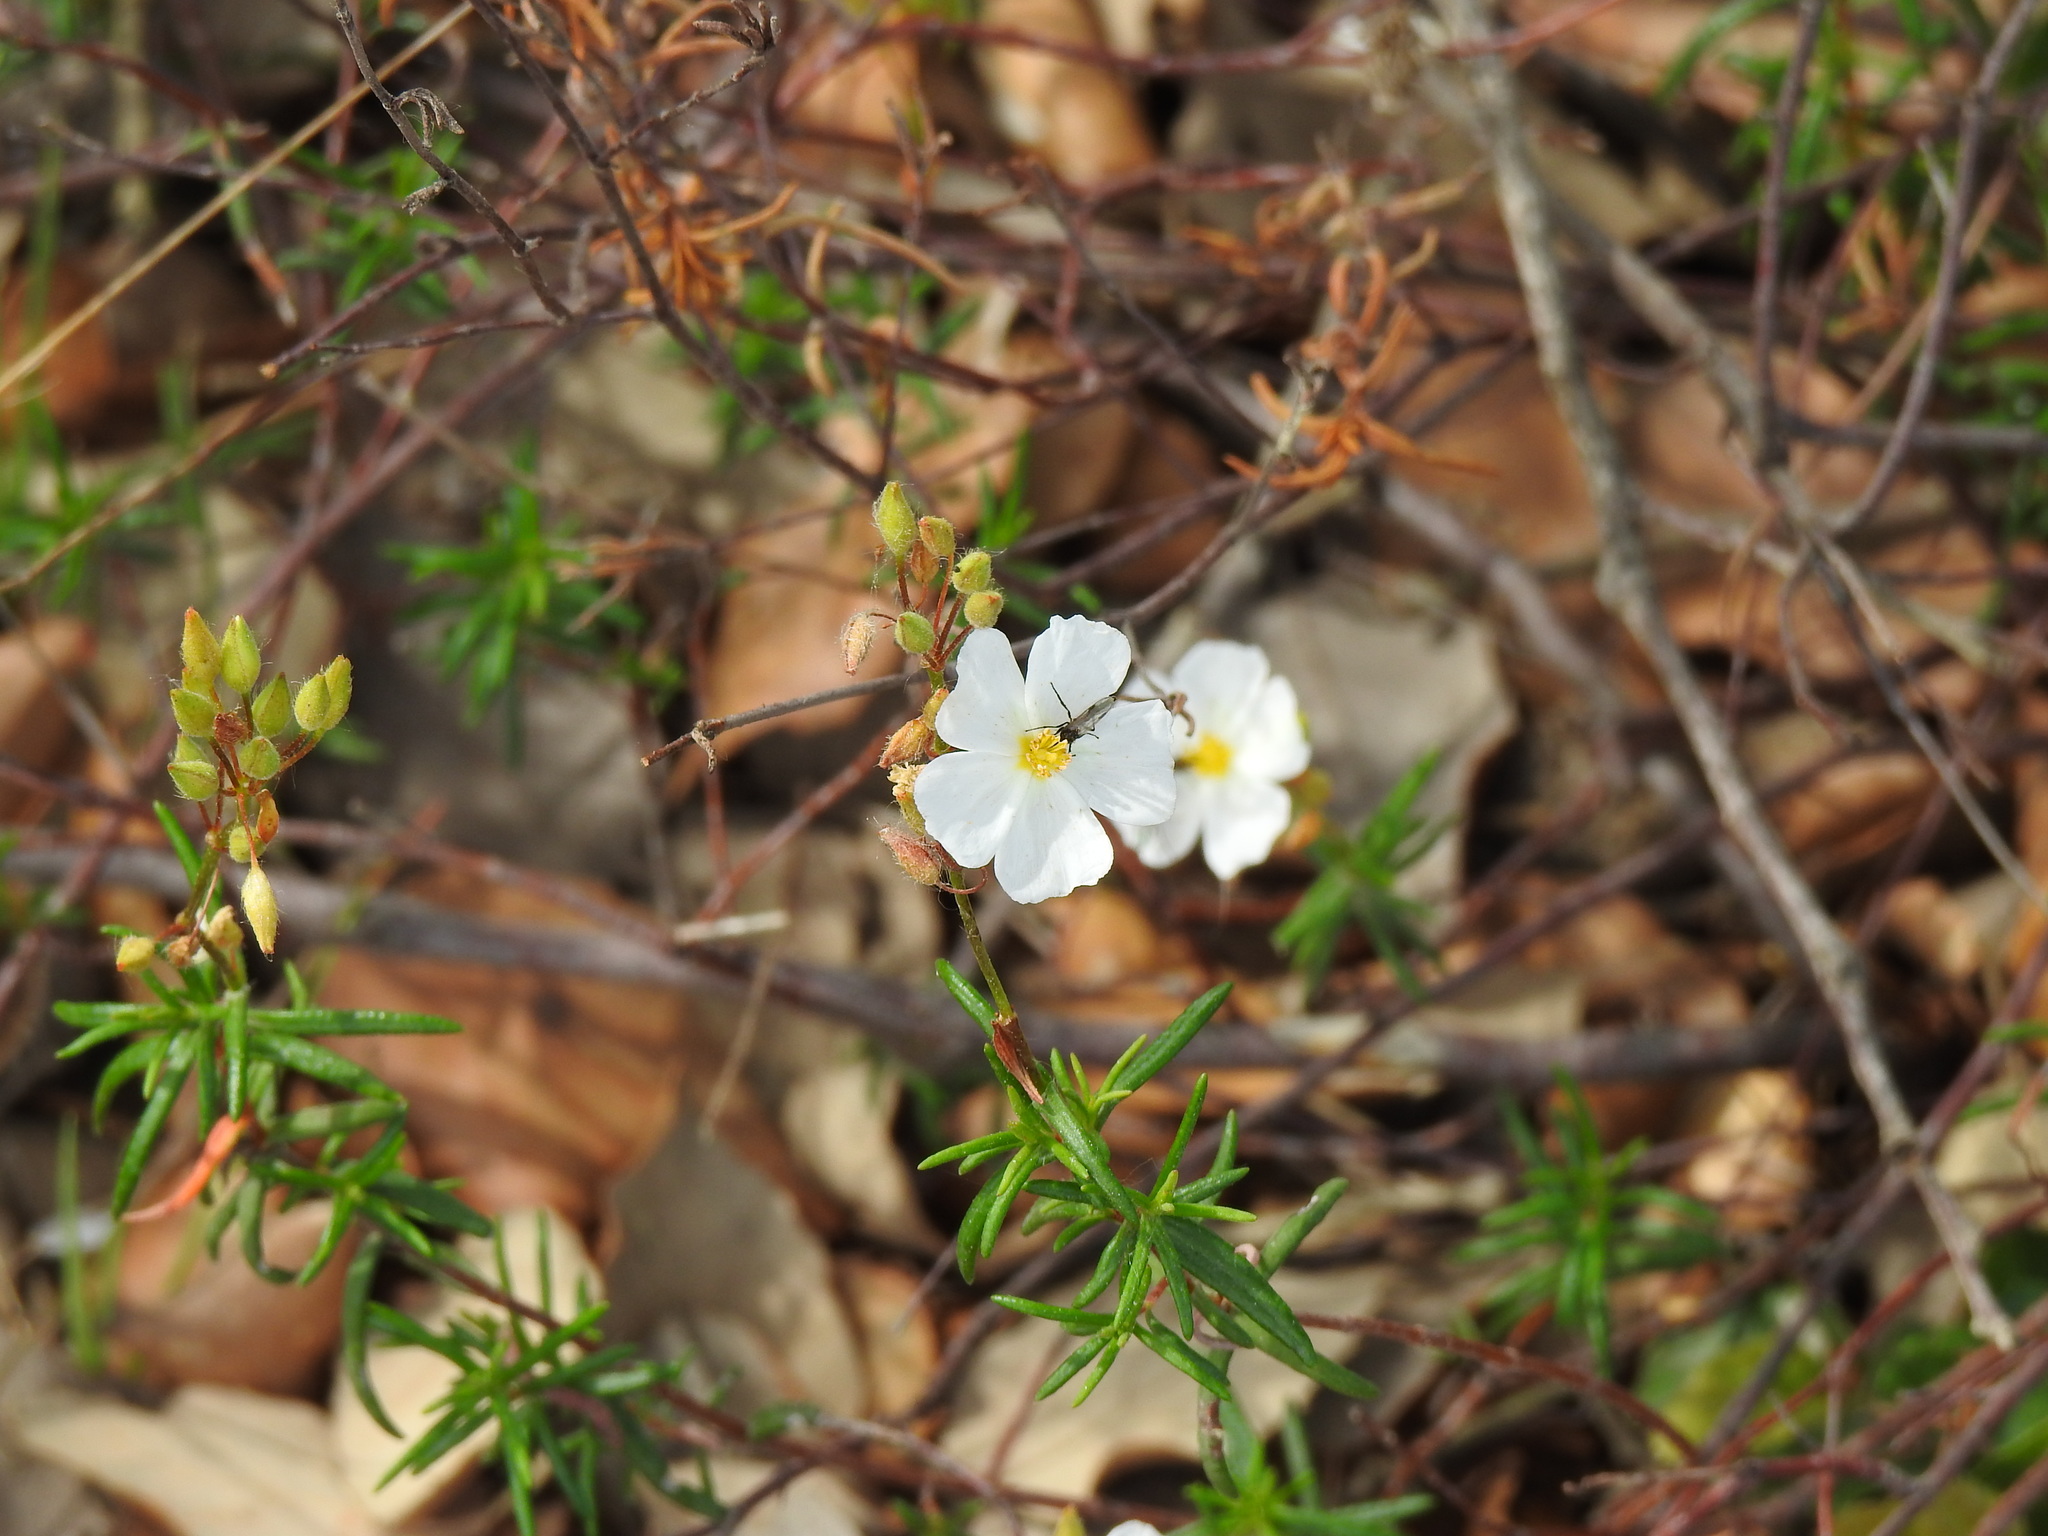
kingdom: Plantae
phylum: Tracheophyta
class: Magnoliopsida
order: Malvales
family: Cistaceae
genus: Halimium
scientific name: Halimium umbellatum
